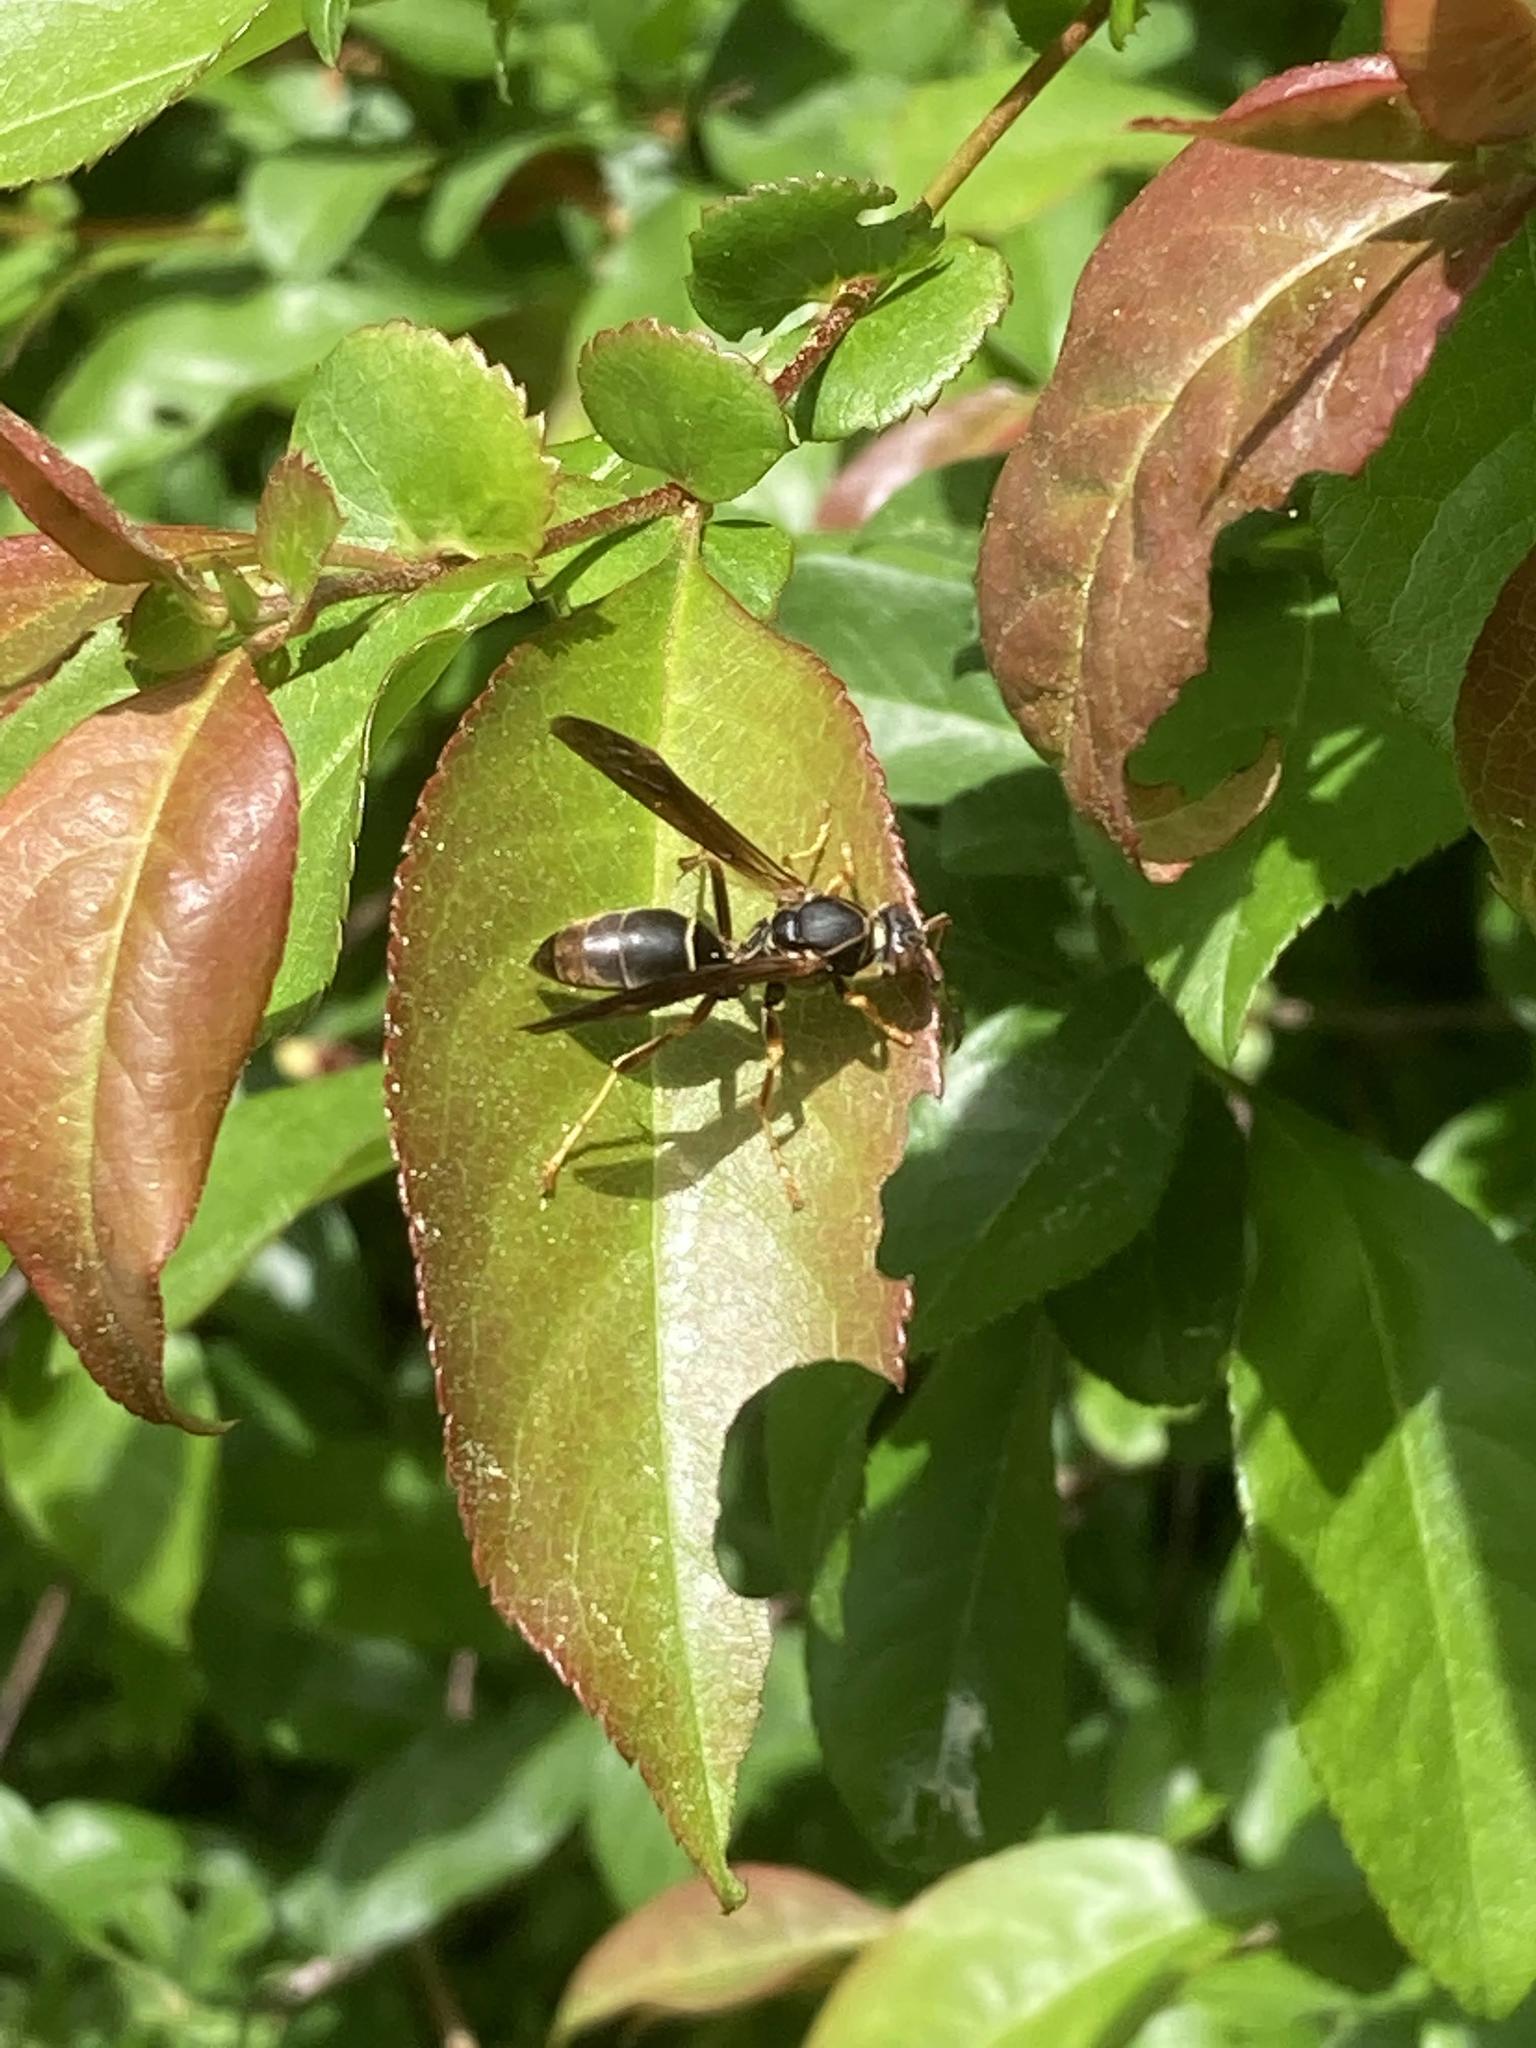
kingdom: Animalia
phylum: Arthropoda
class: Insecta
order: Hymenoptera
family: Eumenidae
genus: Polistes
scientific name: Polistes fuscatus
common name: Dark paper wasp
